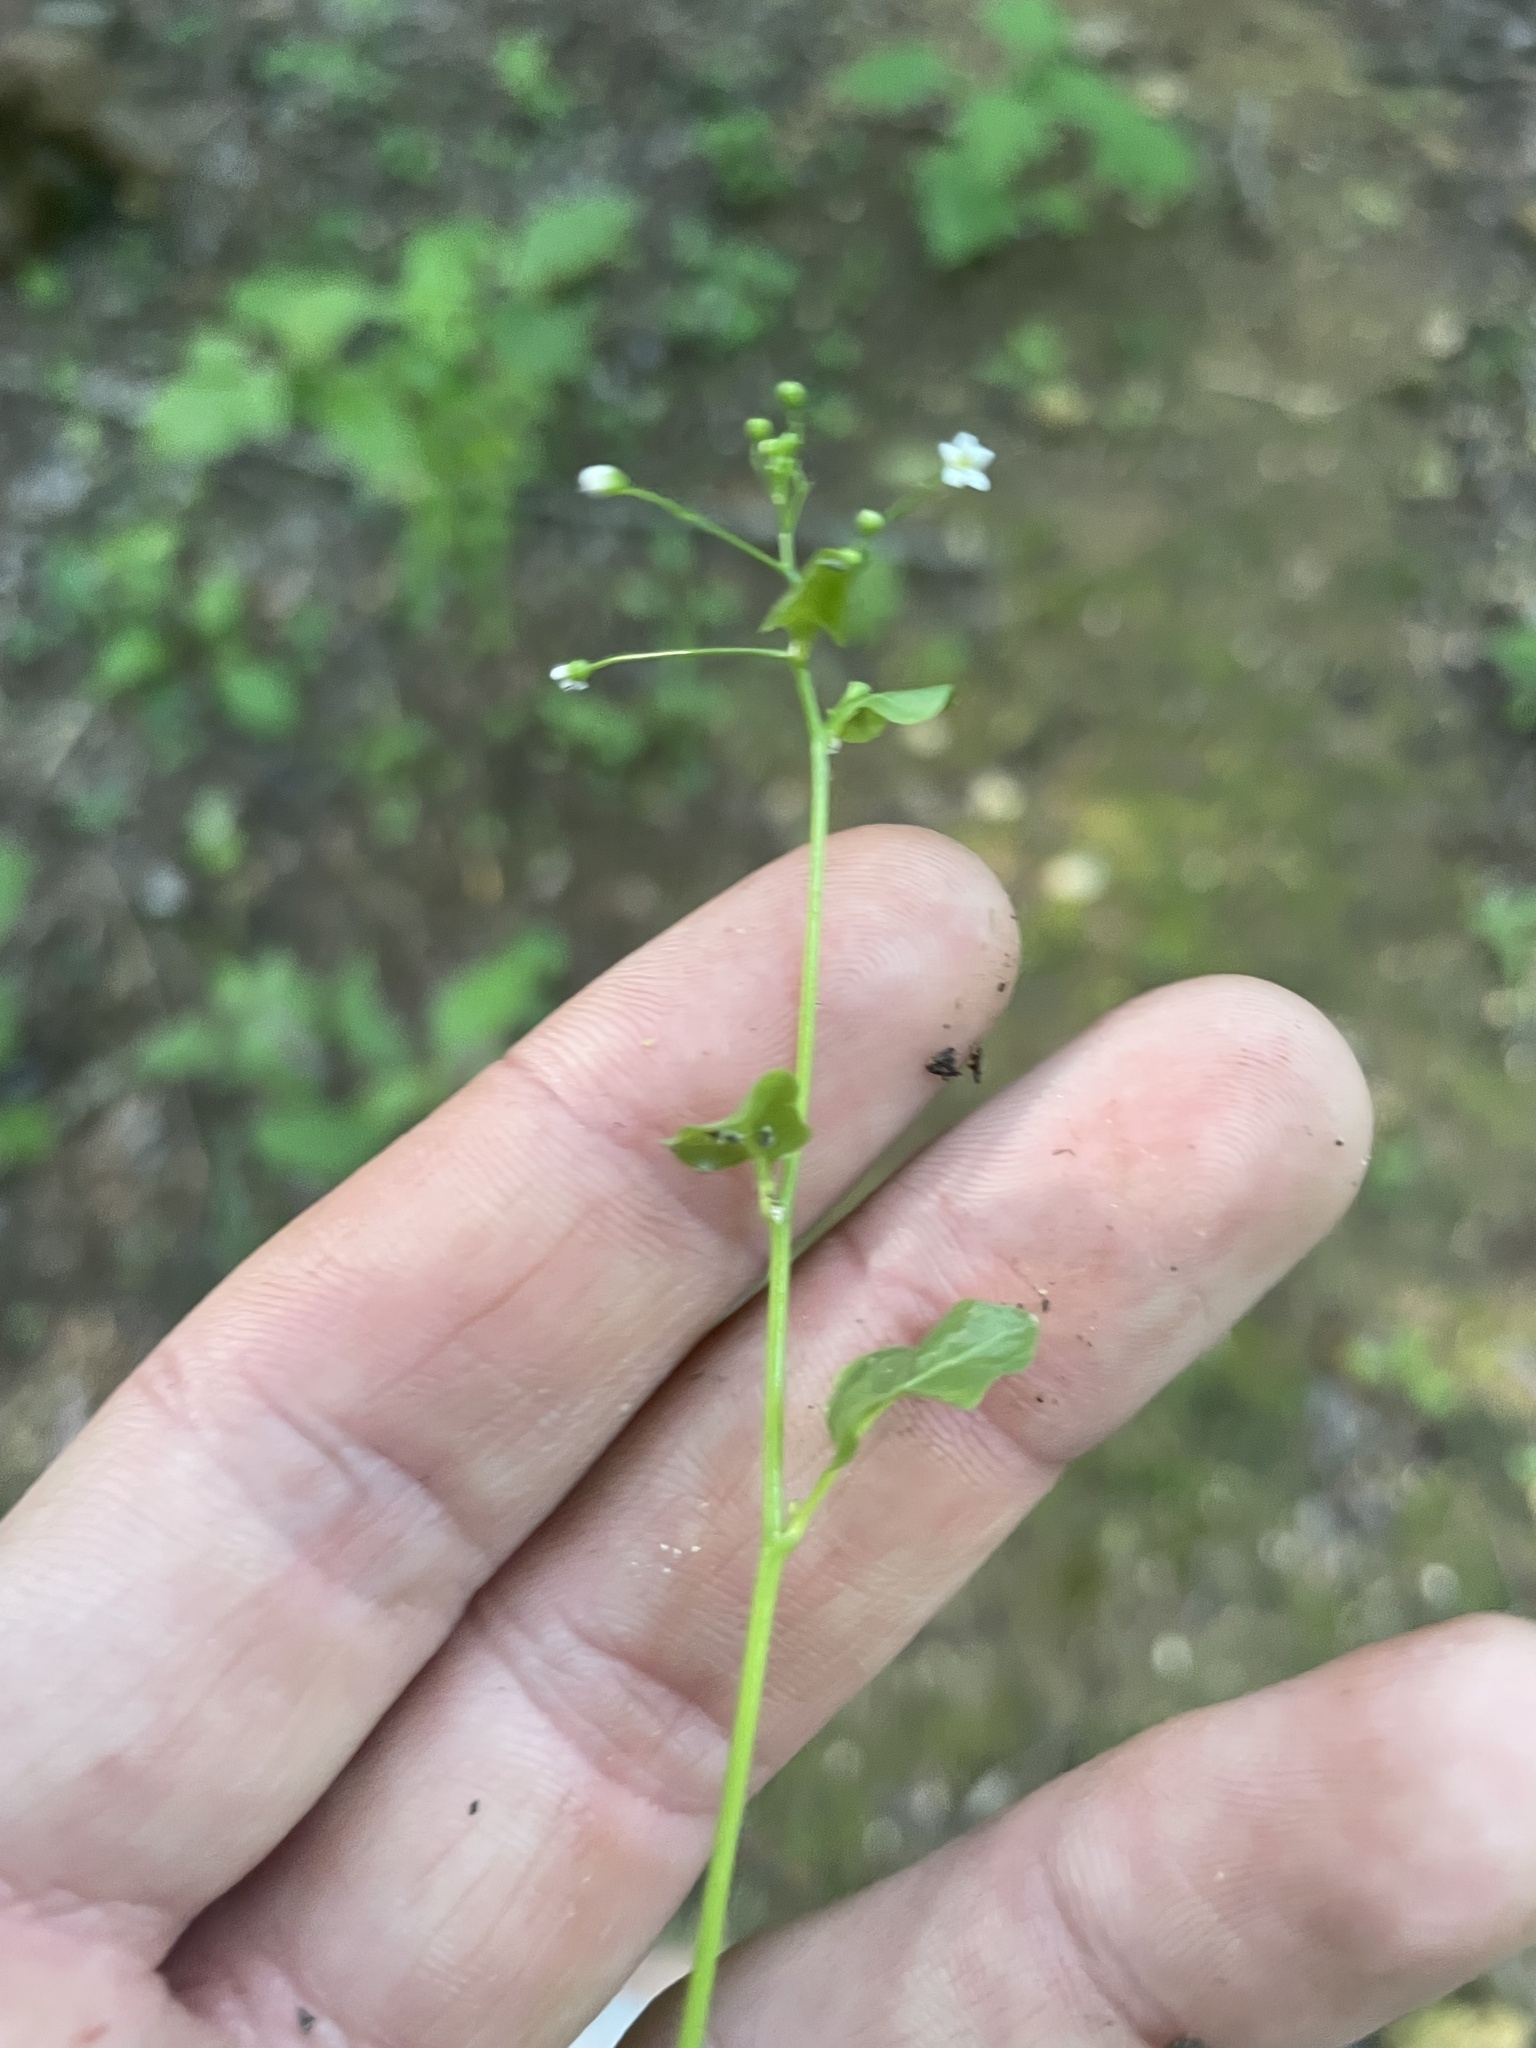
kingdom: Plantae
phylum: Tracheophyta
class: Magnoliopsida
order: Ericales
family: Primulaceae
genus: Samolus
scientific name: Samolus parviflorus
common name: False water pimpernel
